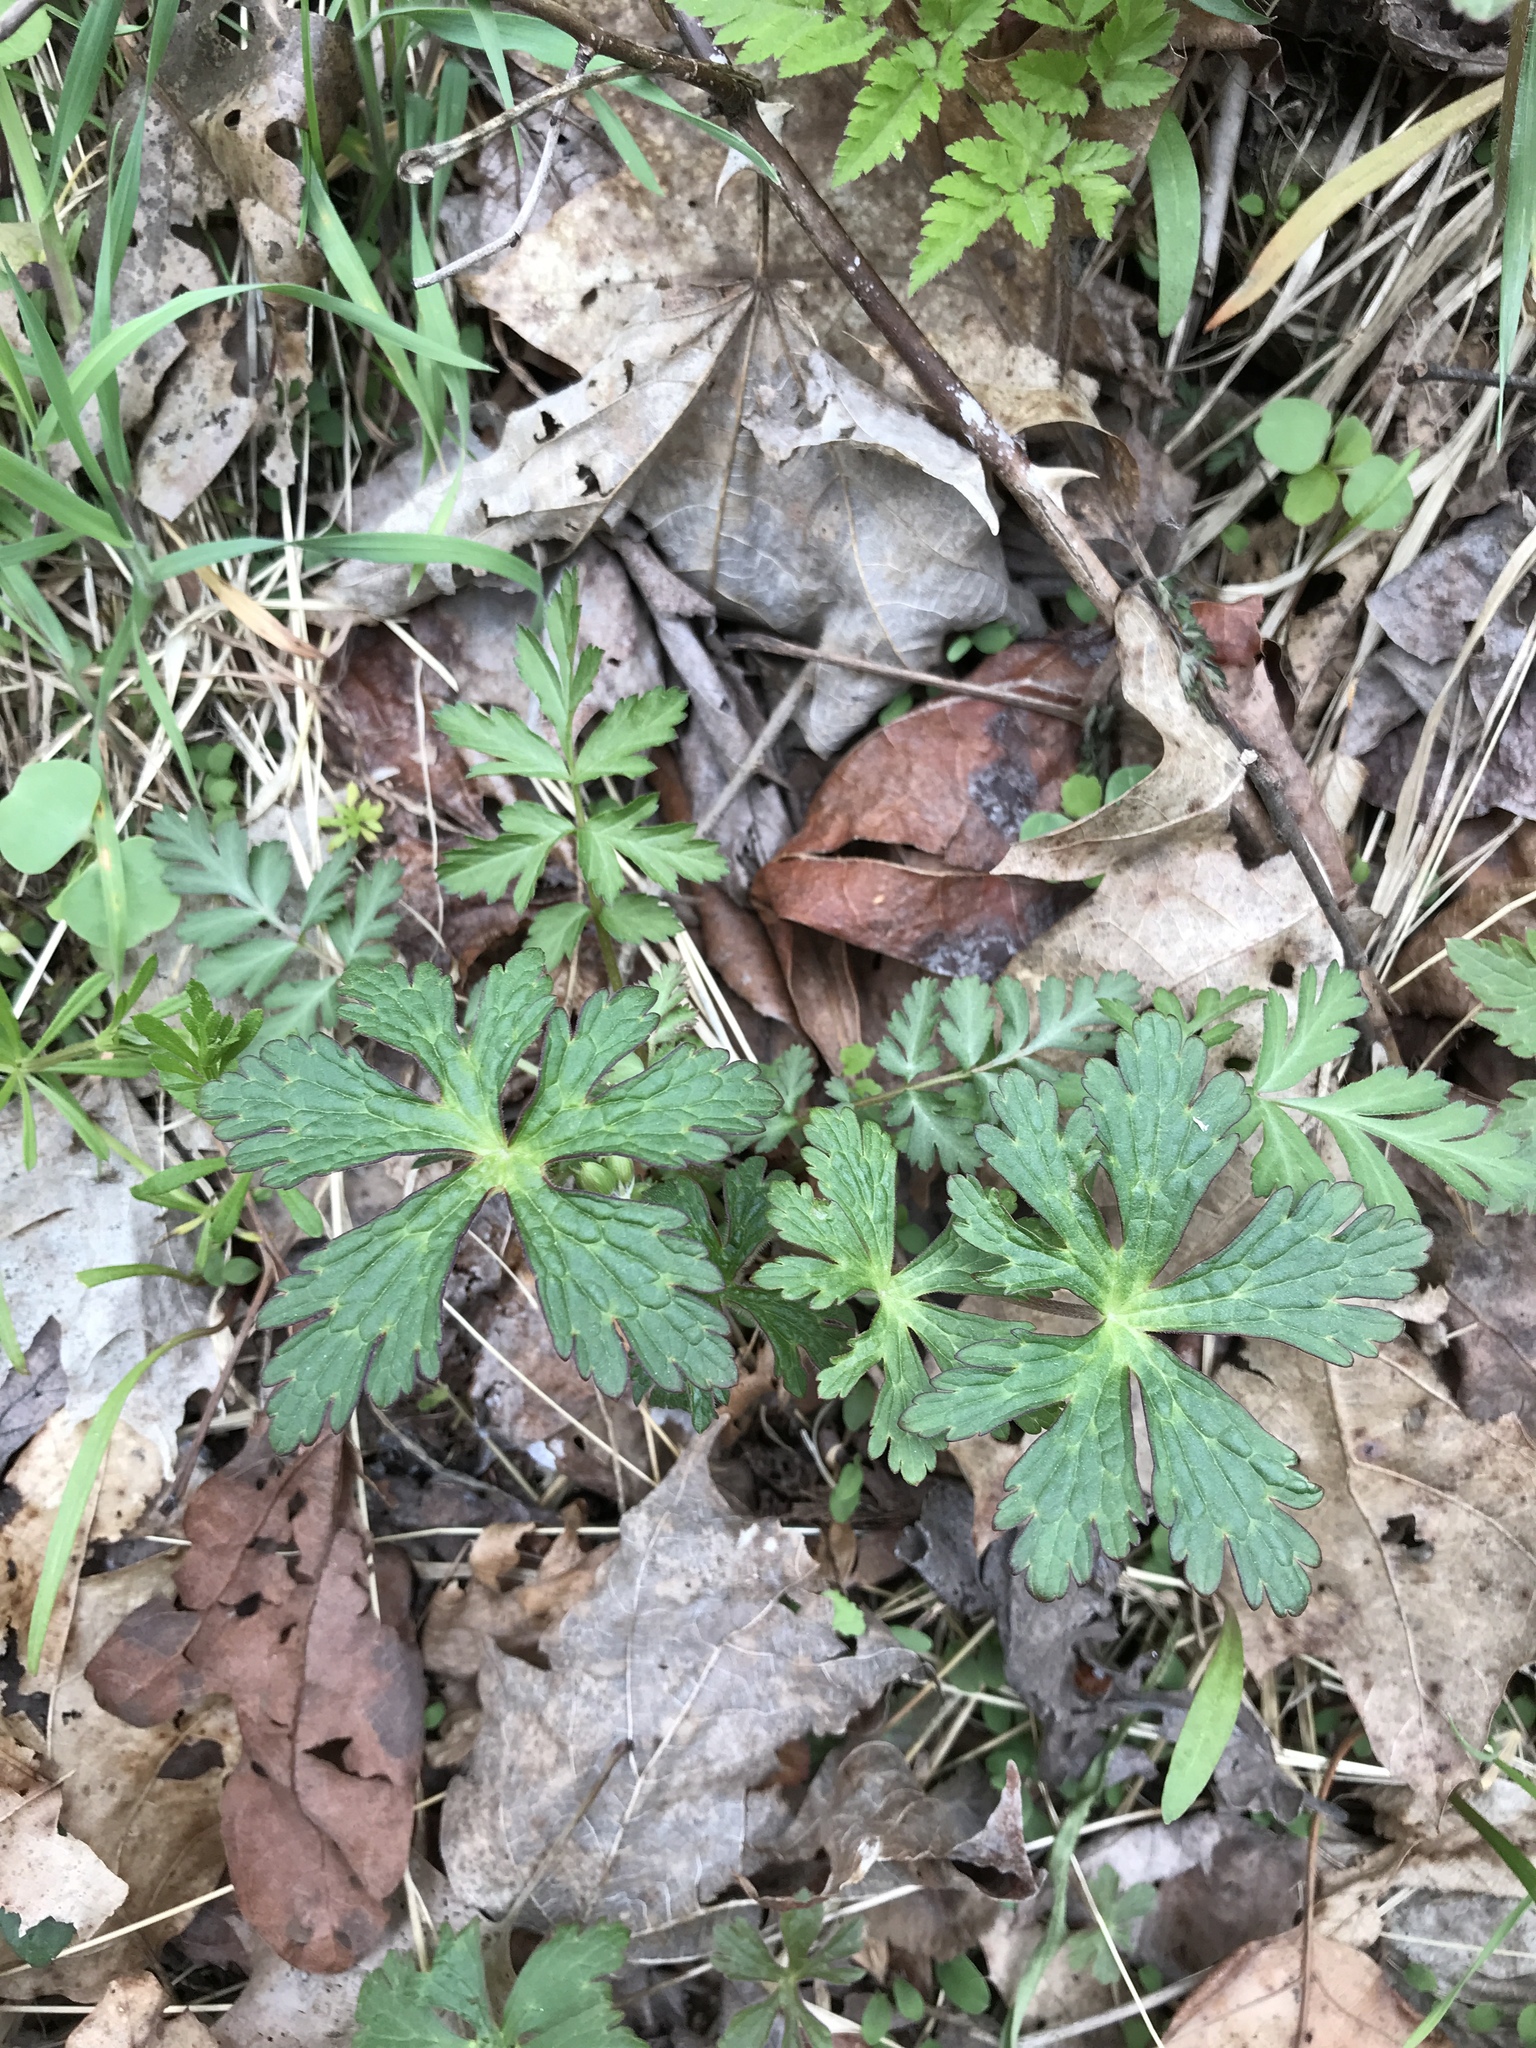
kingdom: Plantae
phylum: Tracheophyta
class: Magnoliopsida
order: Geraniales
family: Geraniaceae
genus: Geranium
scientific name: Geranium maculatum
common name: Spotted geranium
